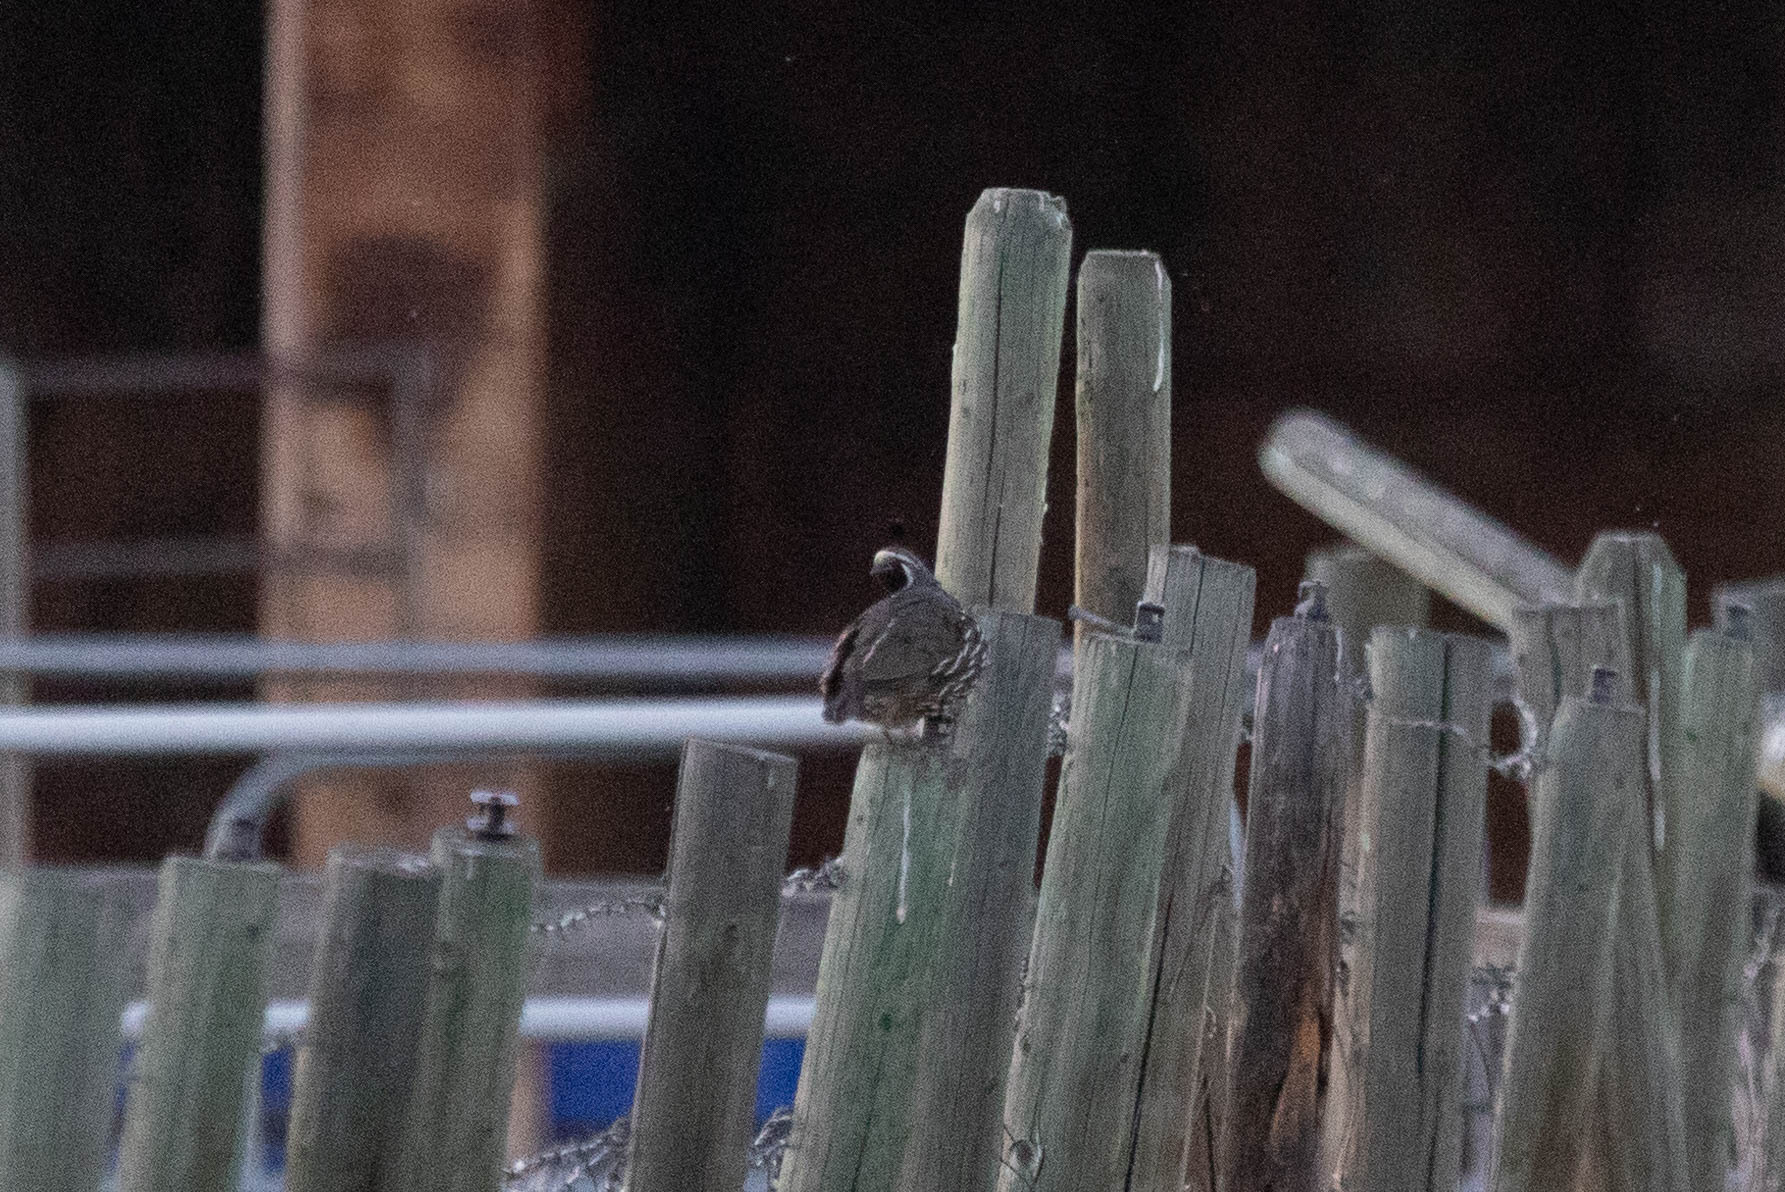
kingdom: Animalia
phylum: Chordata
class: Aves
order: Galliformes
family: Odontophoridae
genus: Callipepla
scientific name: Callipepla californica
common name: California quail
